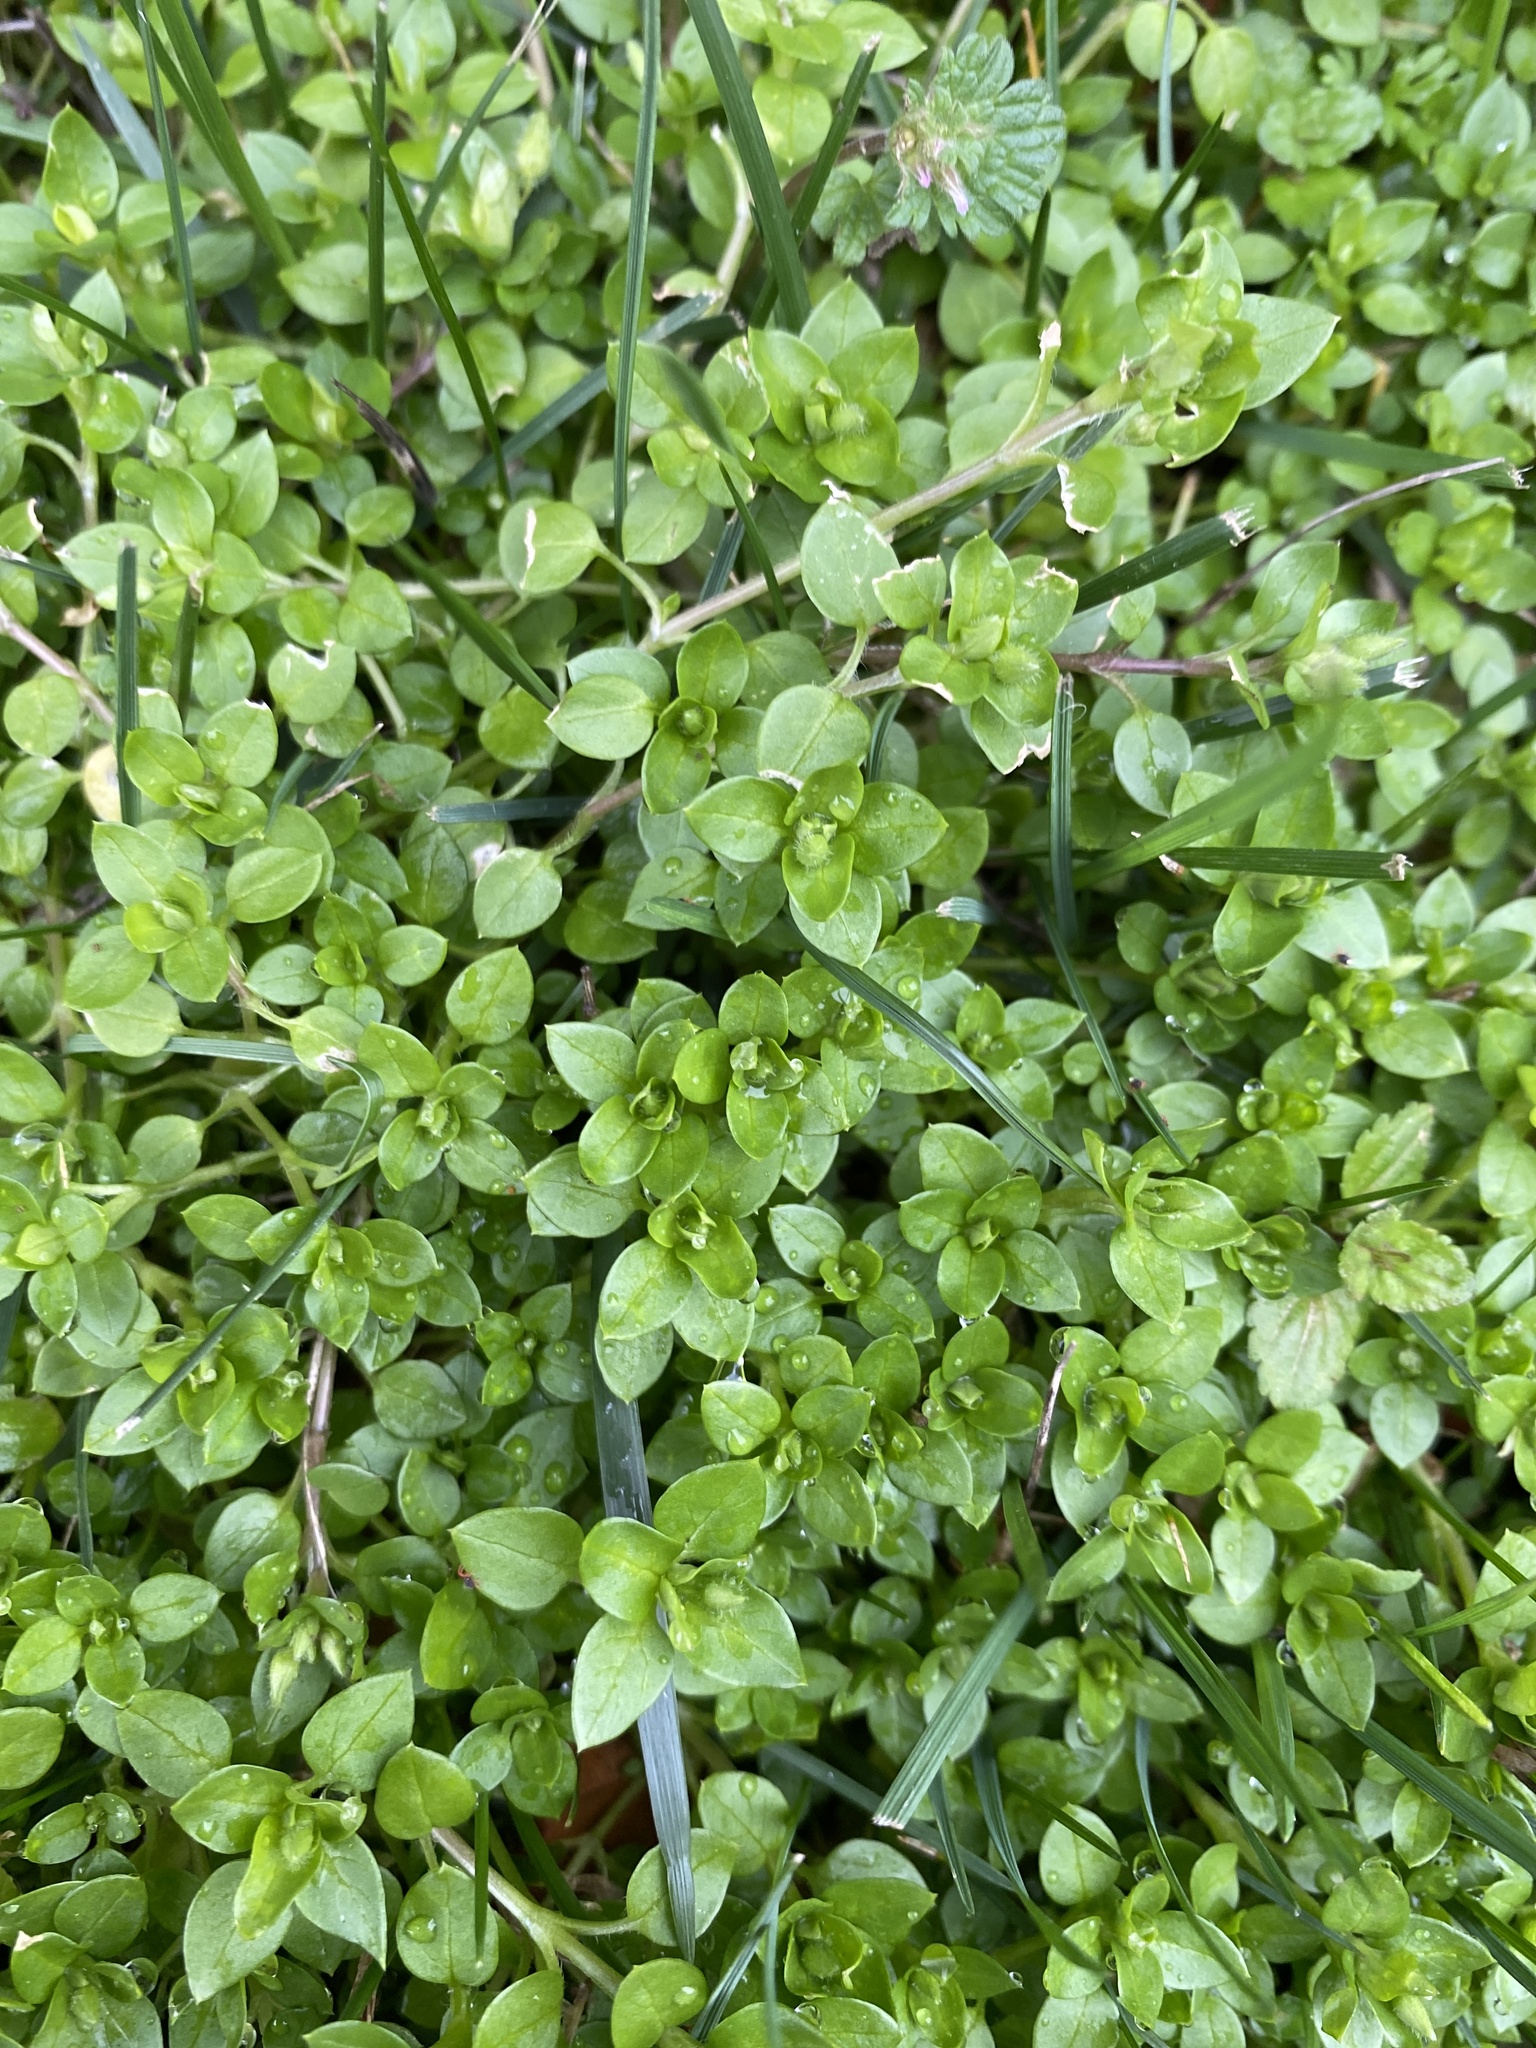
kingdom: Plantae
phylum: Tracheophyta
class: Magnoliopsida
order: Caryophyllales
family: Caryophyllaceae
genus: Stellaria
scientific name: Stellaria media
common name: Common chickweed
